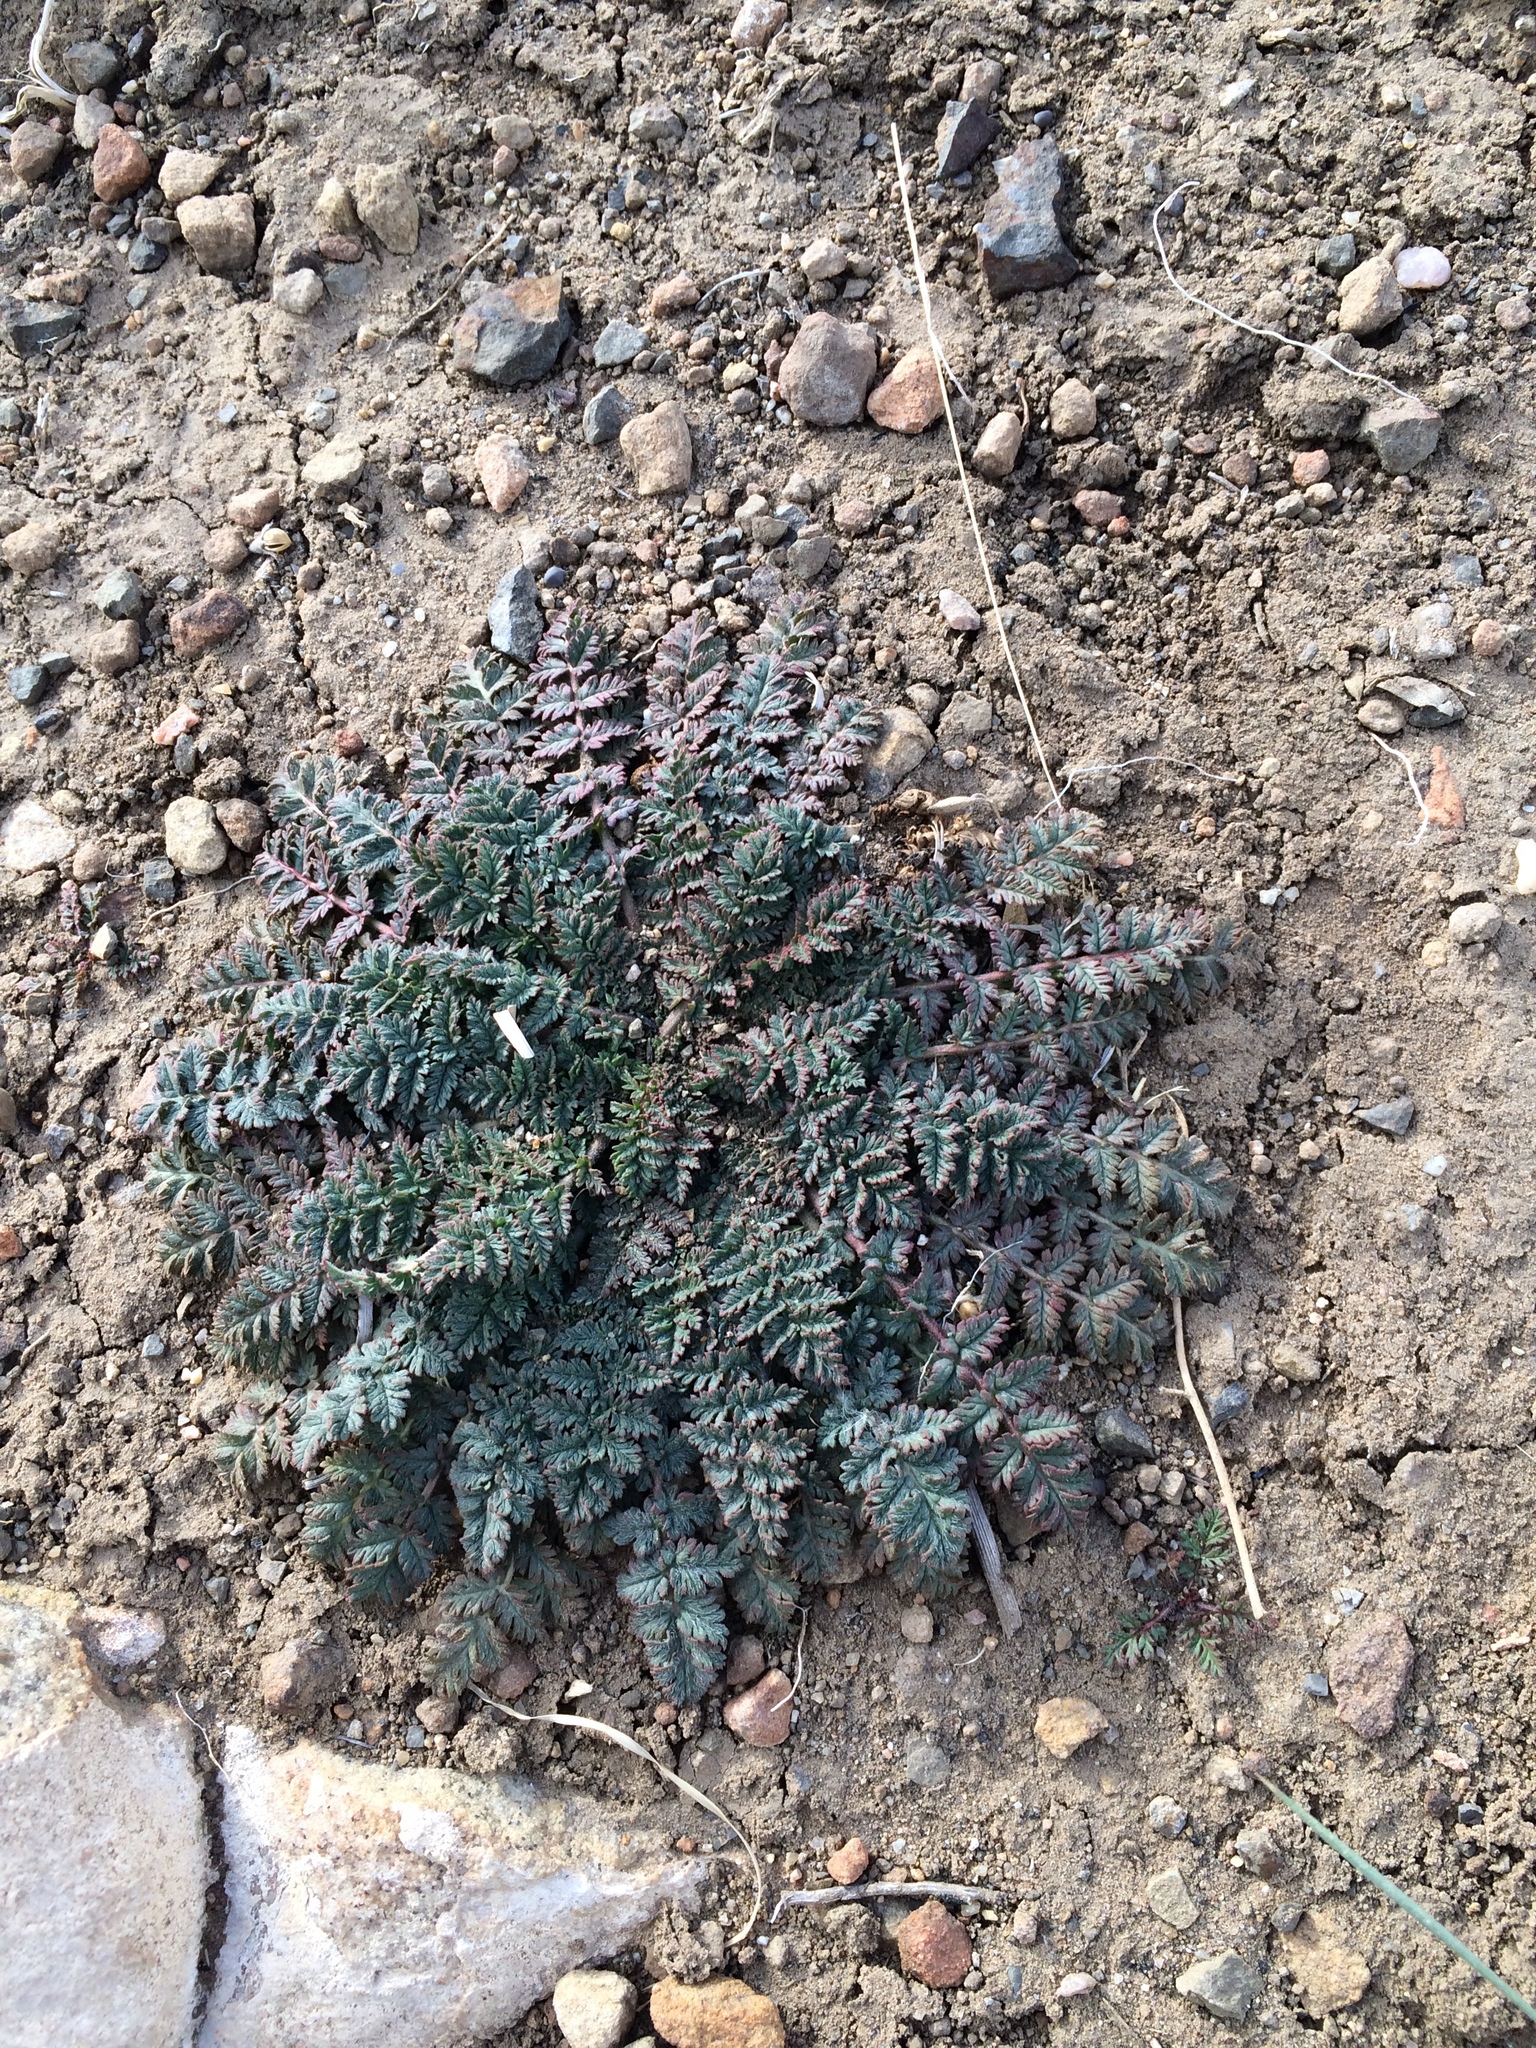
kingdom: Plantae
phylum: Tracheophyta
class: Magnoliopsida
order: Geraniales
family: Geraniaceae
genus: Erodium
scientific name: Erodium cicutarium
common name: Common stork's-bill
